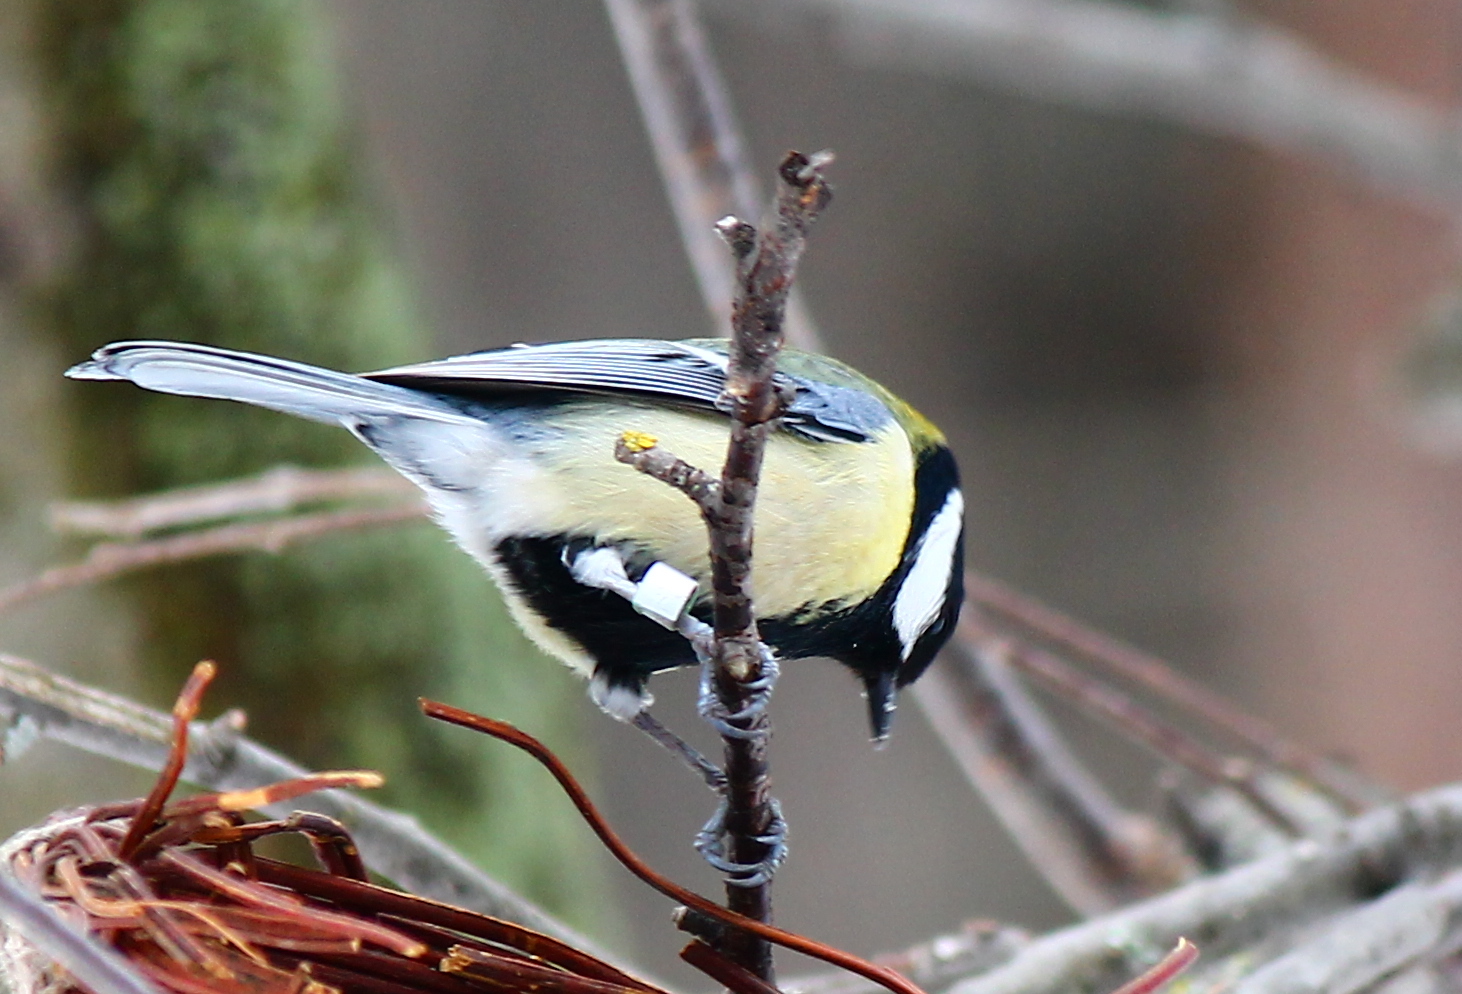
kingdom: Animalia
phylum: Chordata
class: Aves
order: Passeriformes
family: Paridae
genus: Parus
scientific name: Parus major
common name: Great tit
